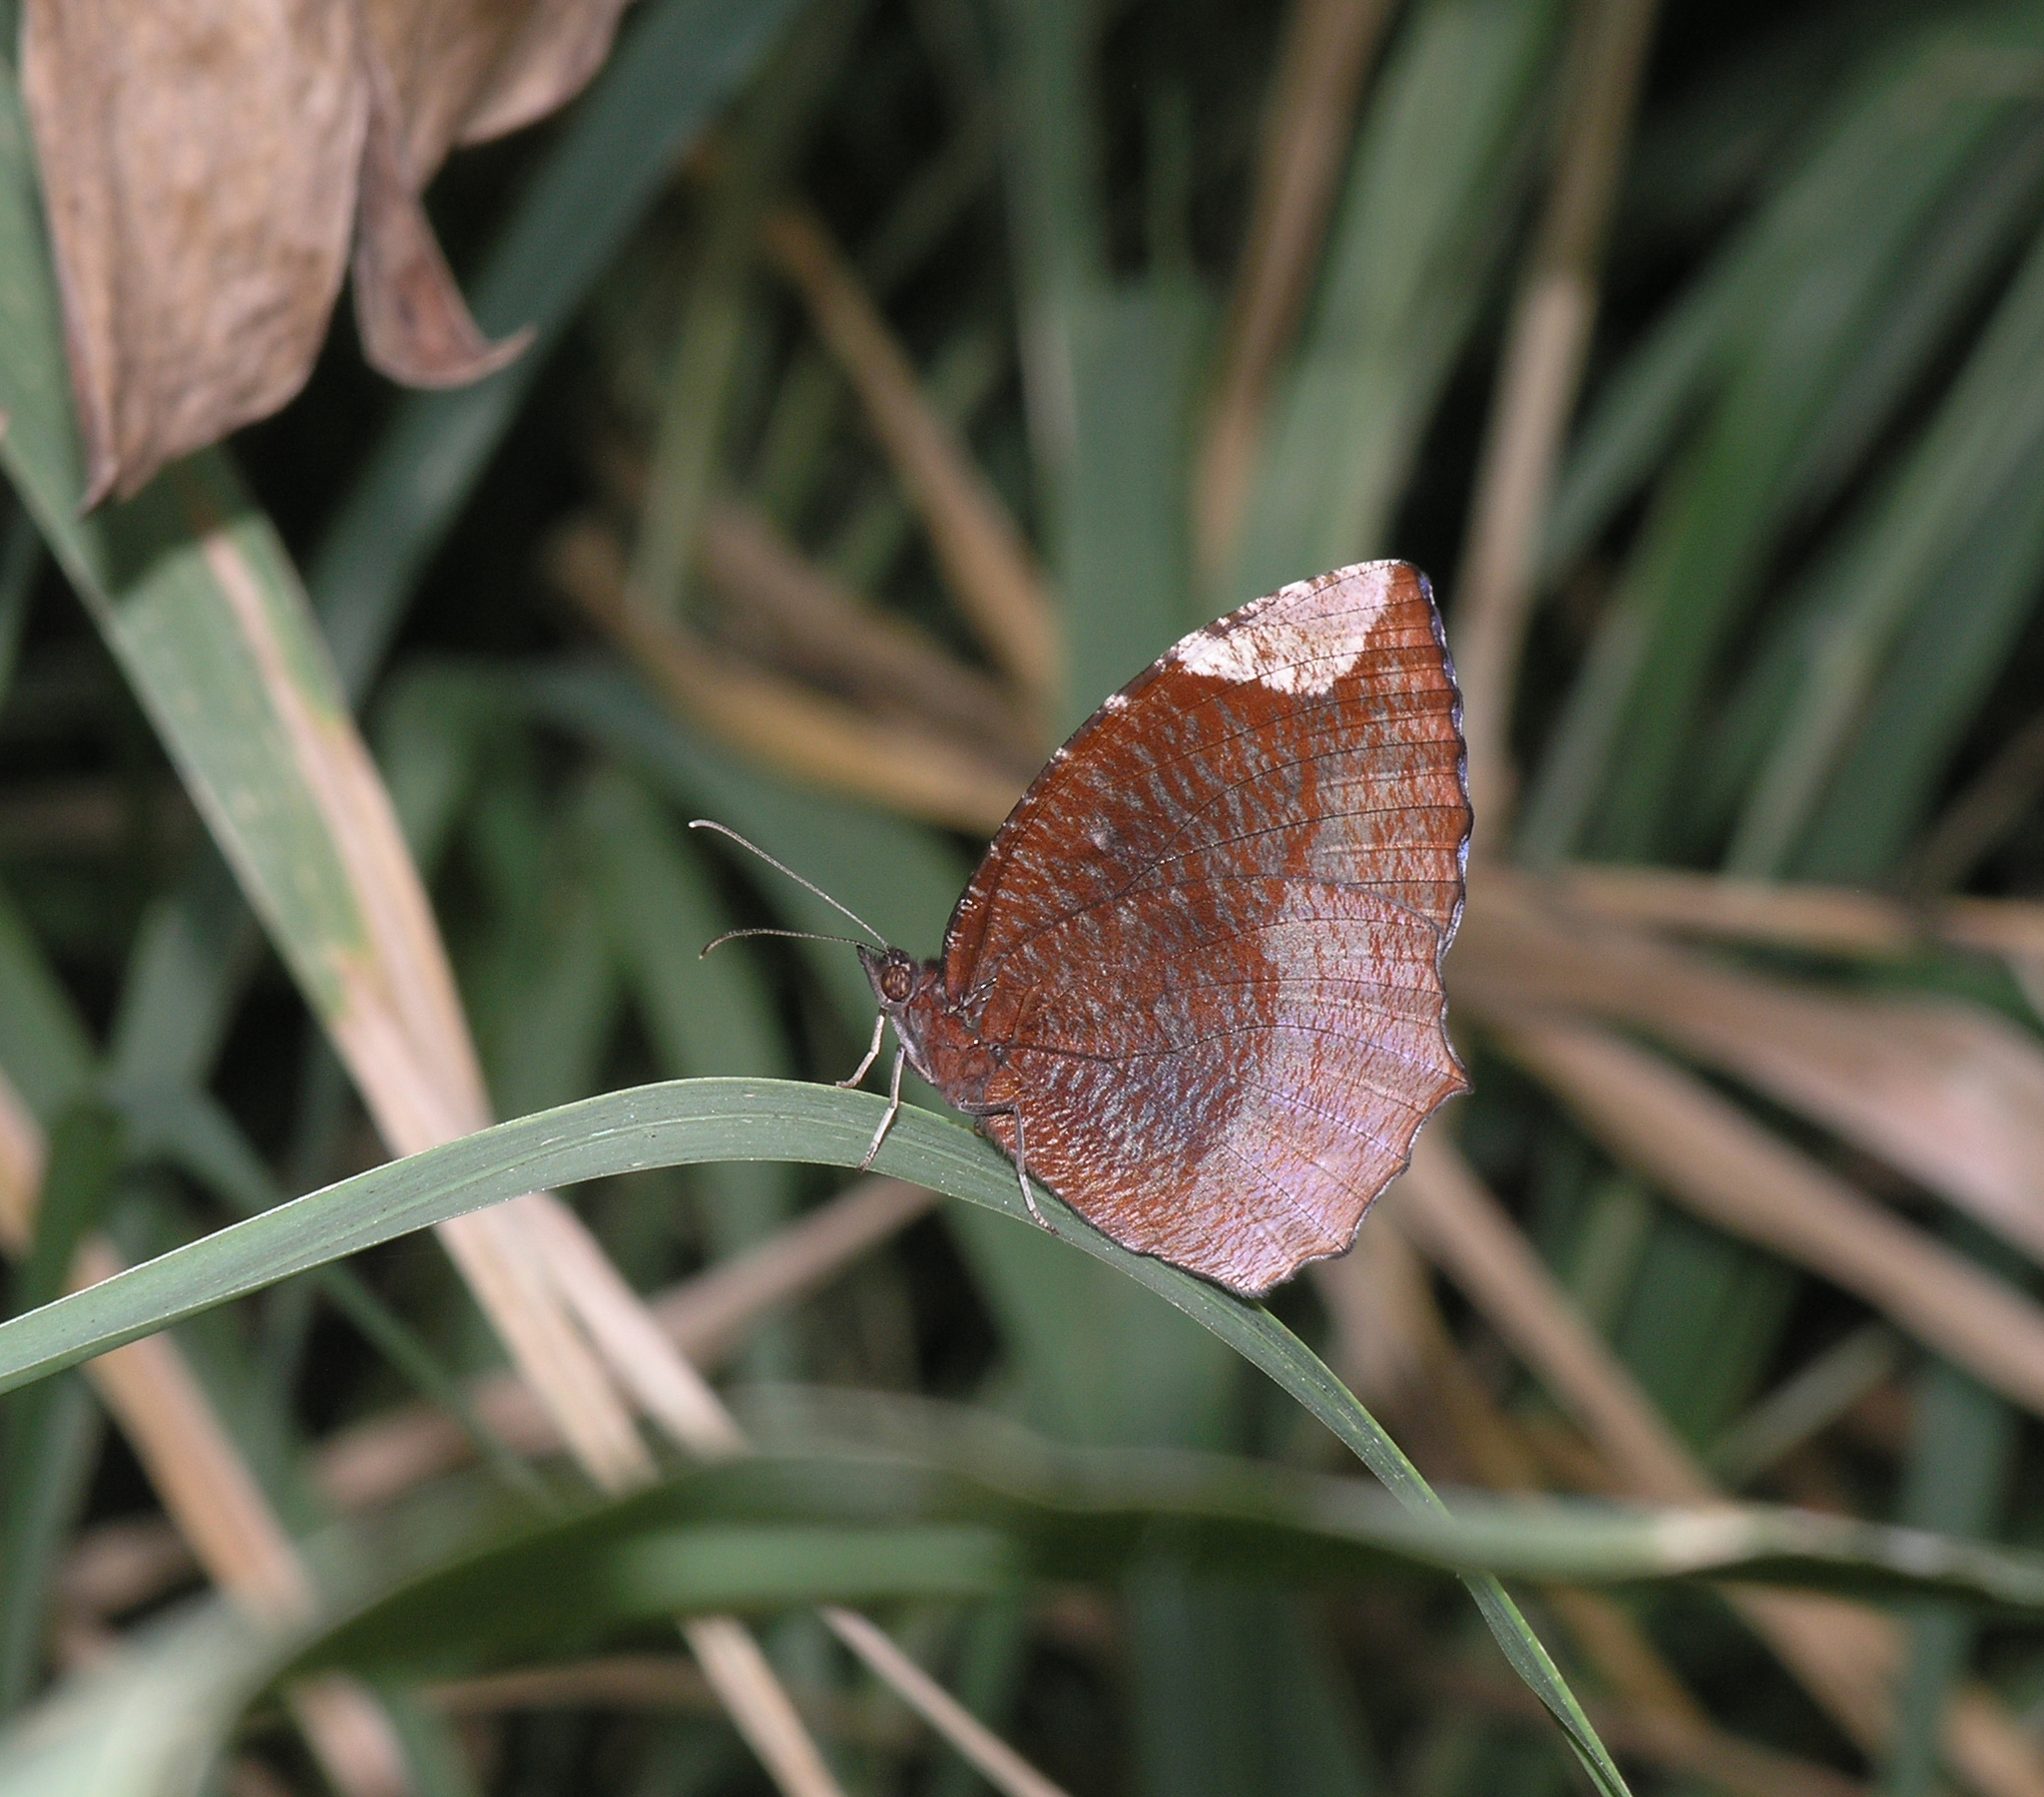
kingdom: Animalia
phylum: Arthropoda
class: Insecta
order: Lepidoptera
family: Nymphalidae
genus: Elymnias
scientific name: Elymnias hypermnestra
